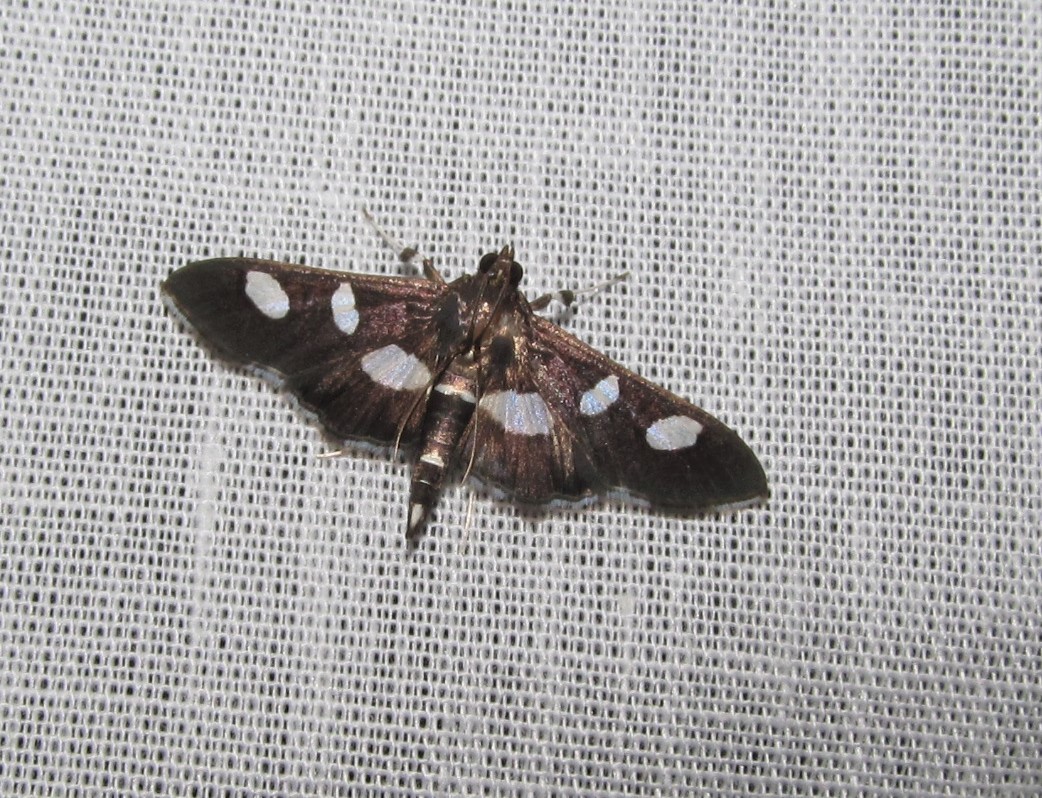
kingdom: Animalia
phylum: Arthropoda
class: Insecta
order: Lepidoptera
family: Crambidae
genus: Desmia
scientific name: Desmia
